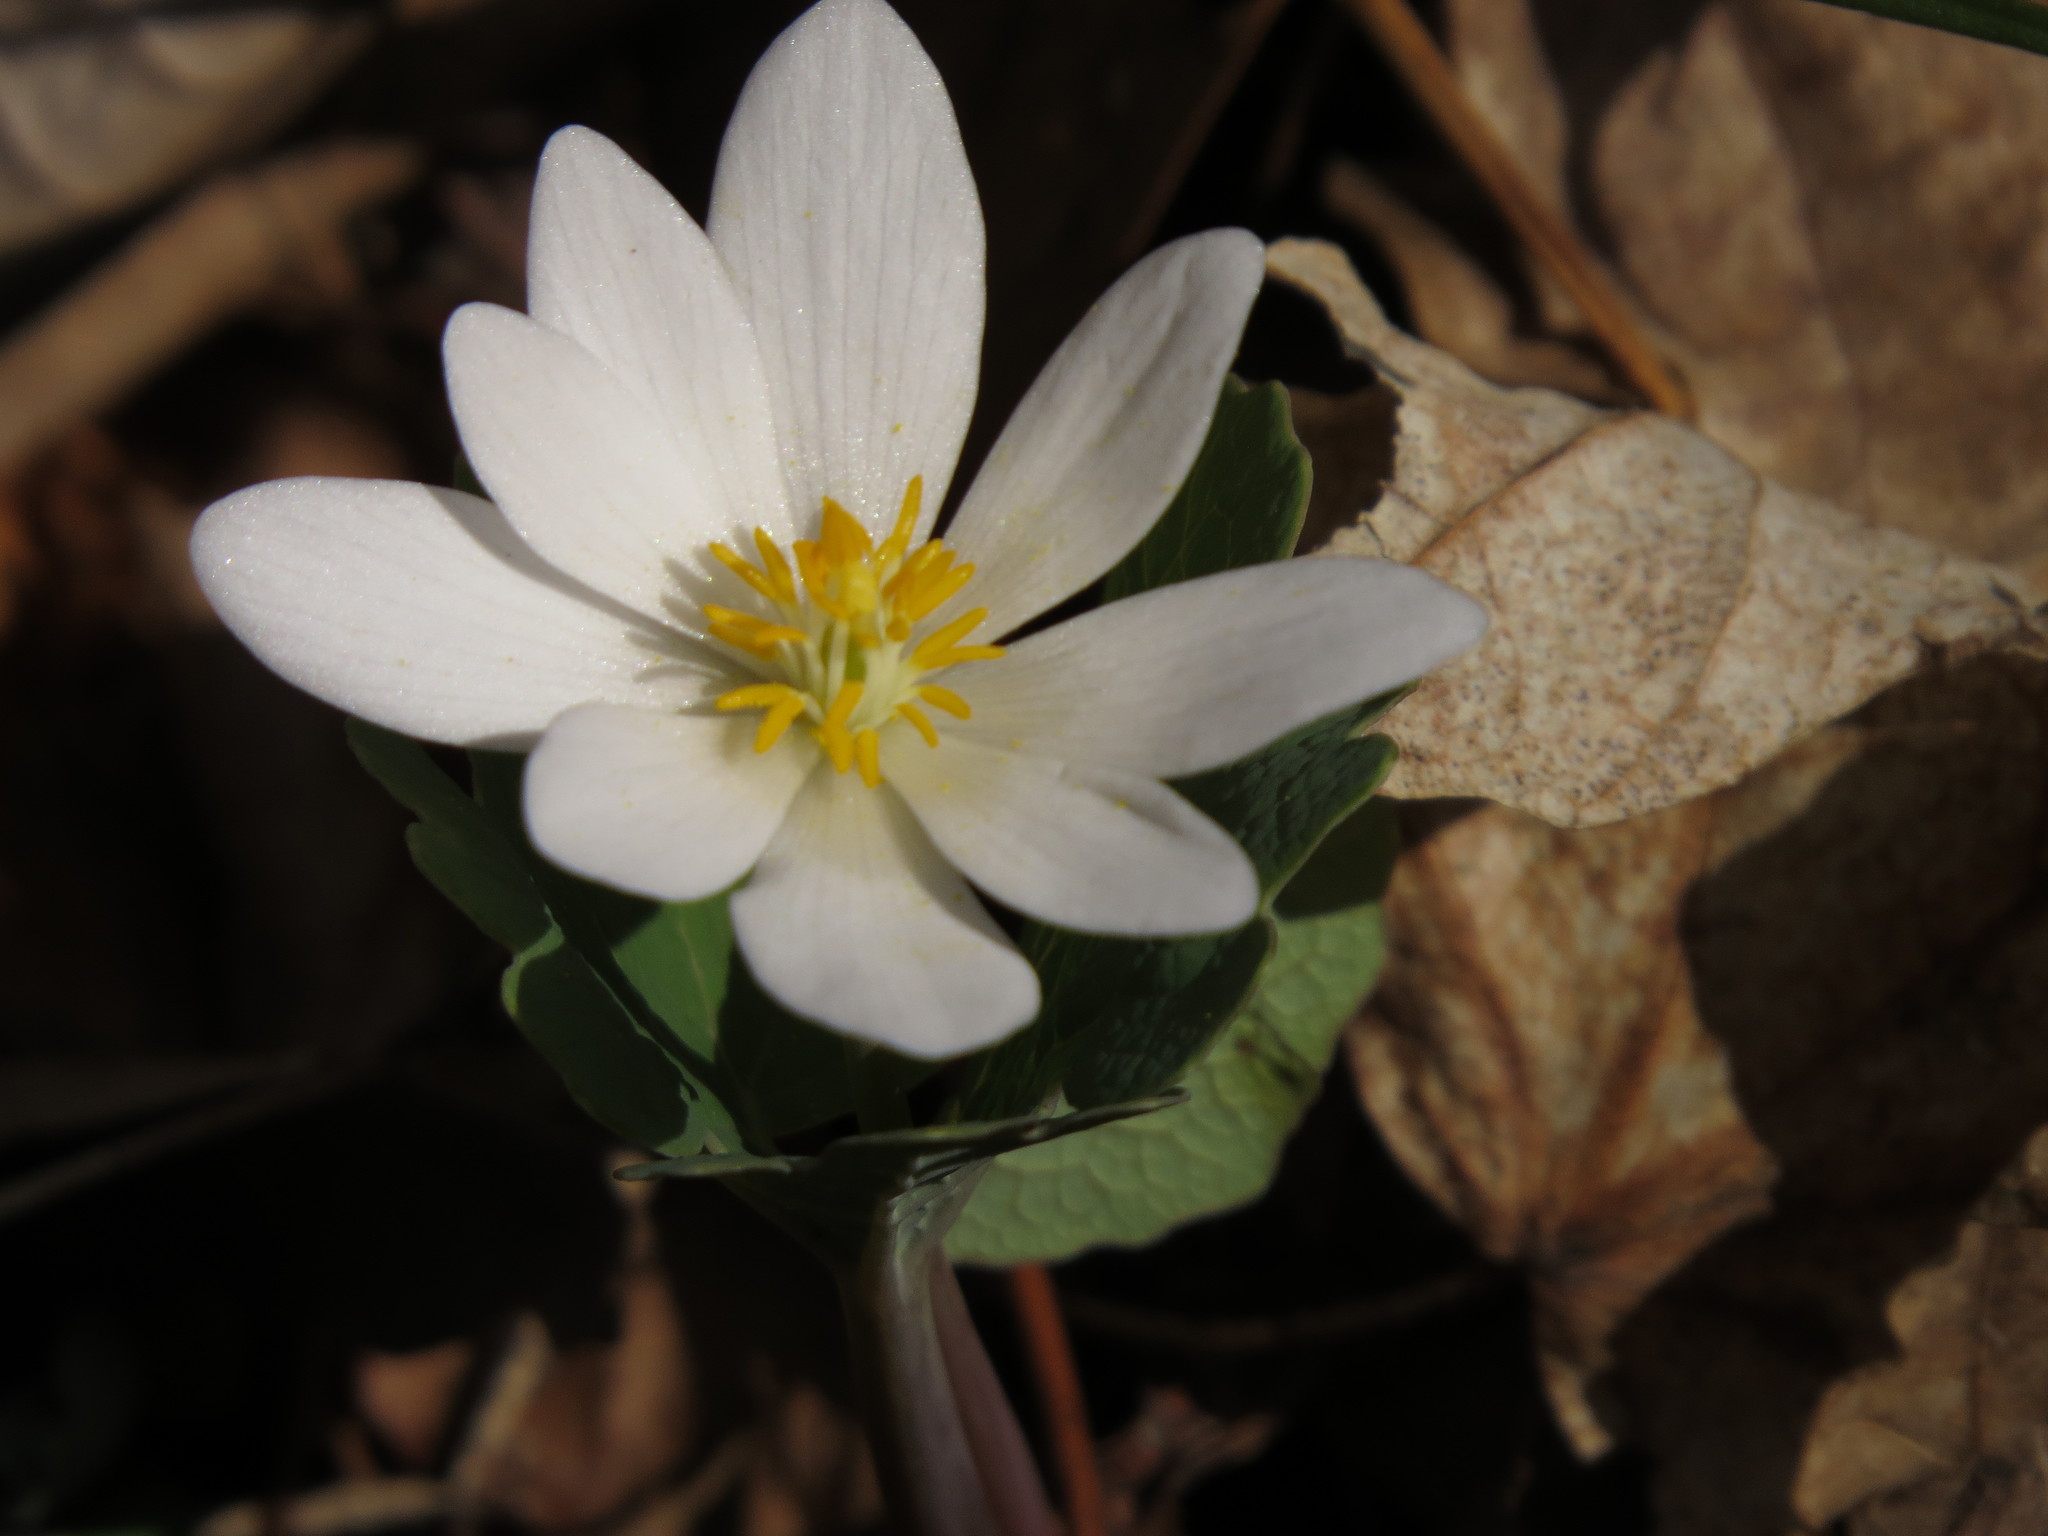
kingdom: Plantae
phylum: Tracheophyta
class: Magnoliopsida
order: Ranunculales
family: Papaveraceae
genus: Sanguinaria
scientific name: Sanguinaria canadensis
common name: Bloodroot
